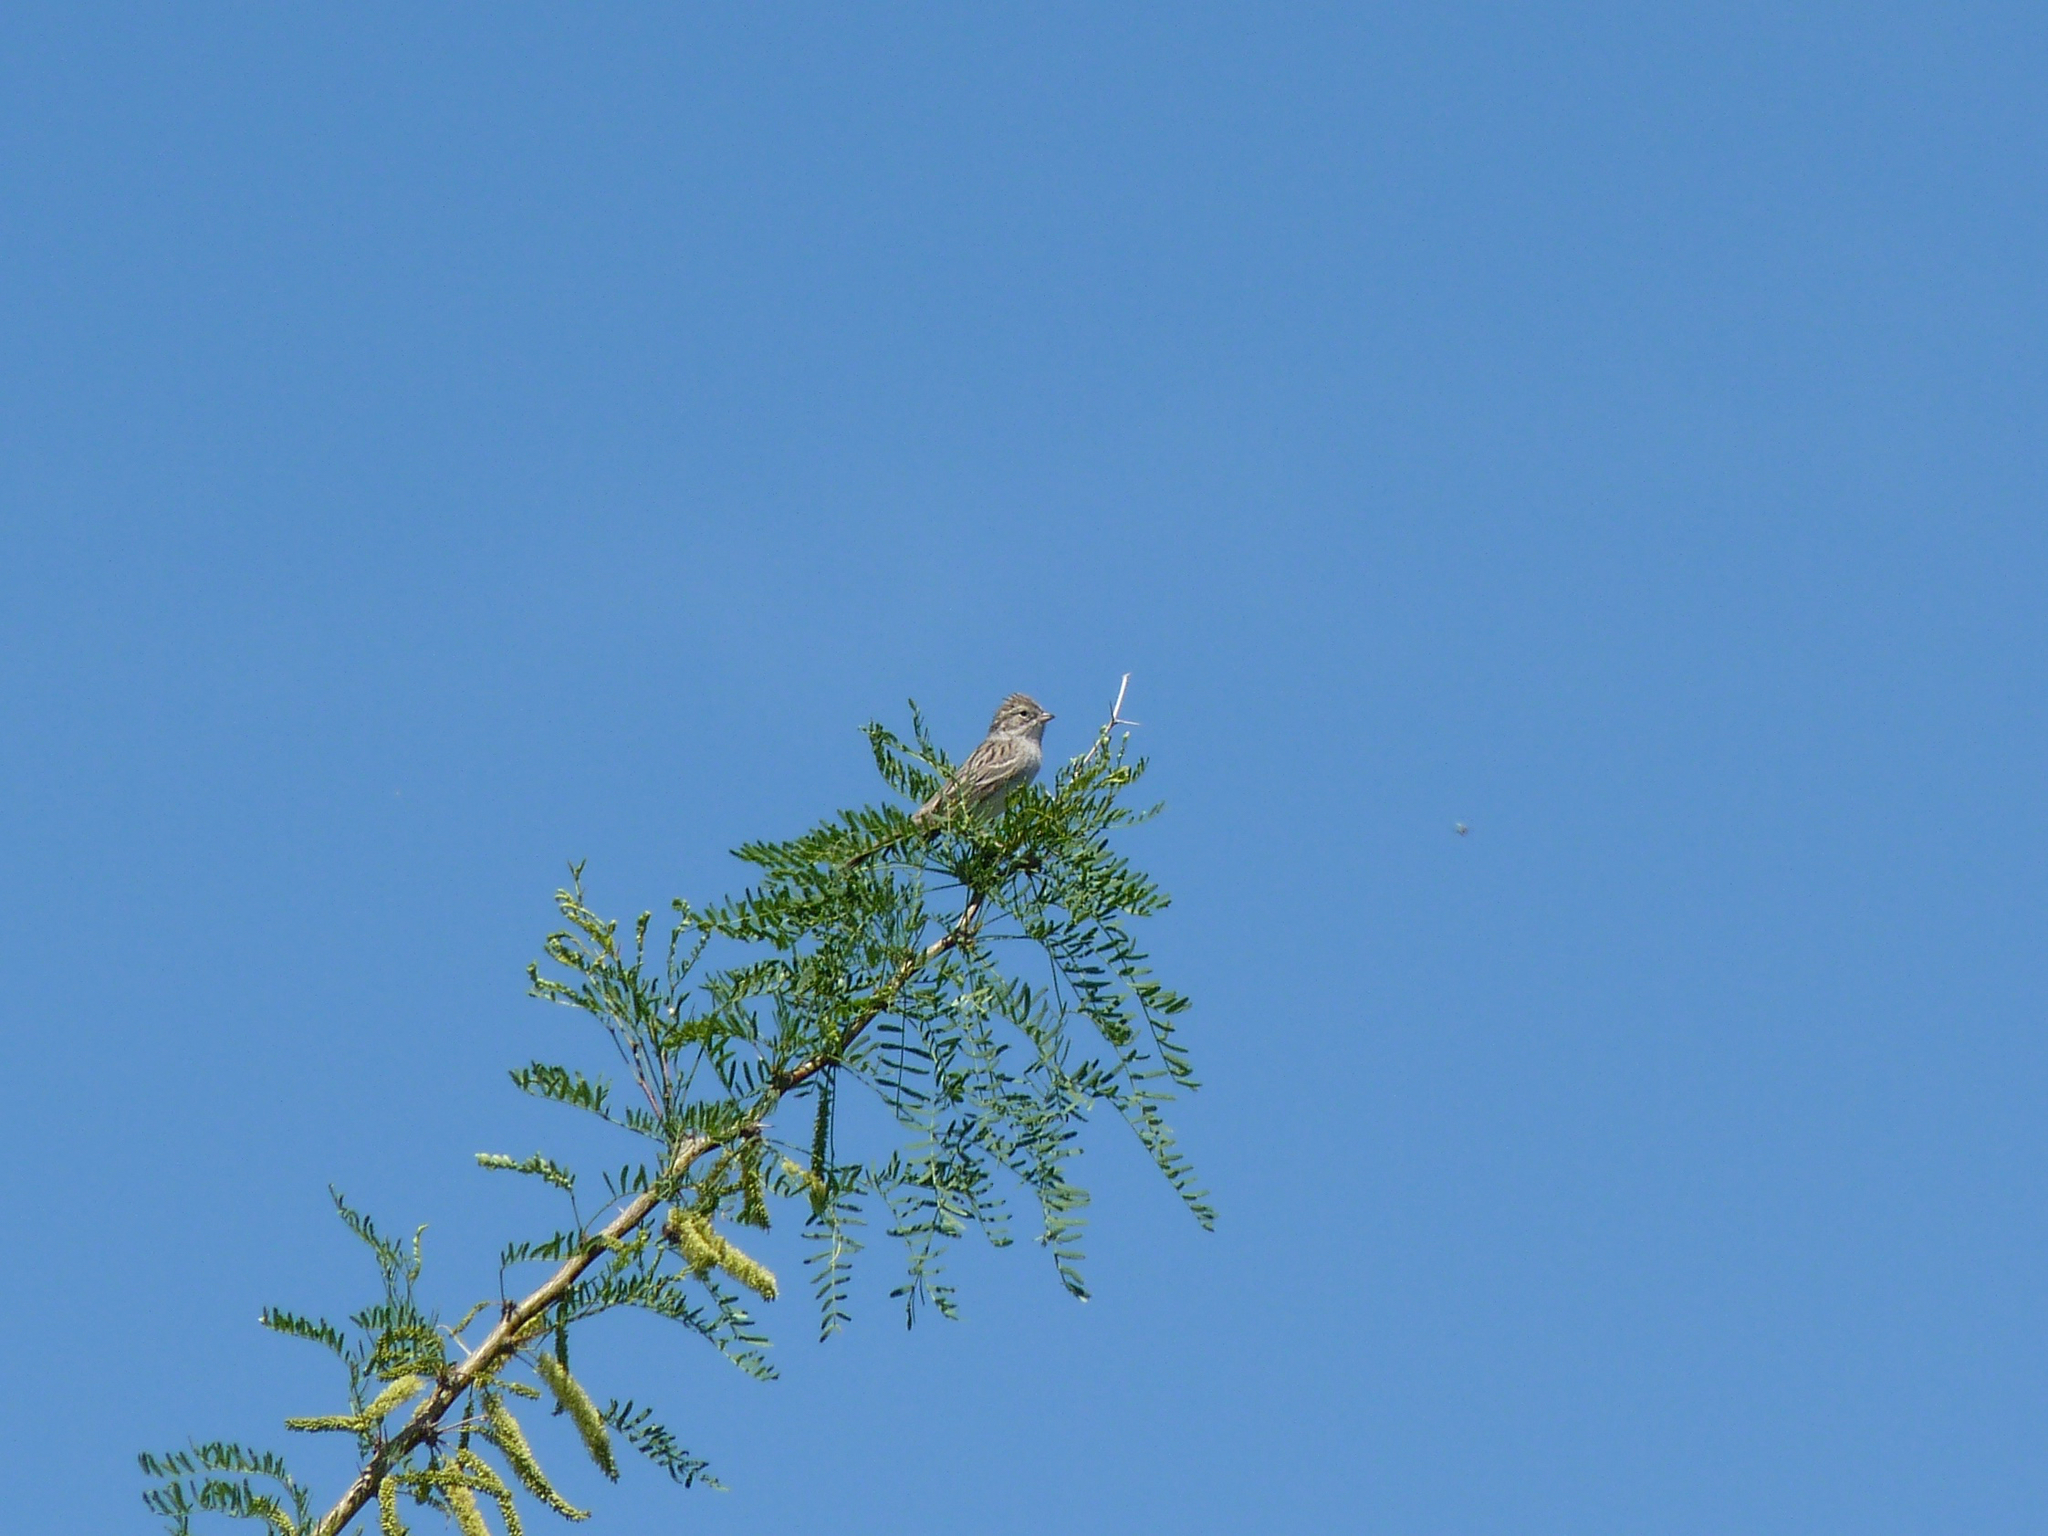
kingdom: Animalia
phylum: Chordata
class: Aves
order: Passeriformes
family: Passerellidae
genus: Spizella
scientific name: Spizella breweri
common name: Brewer's sparrow
